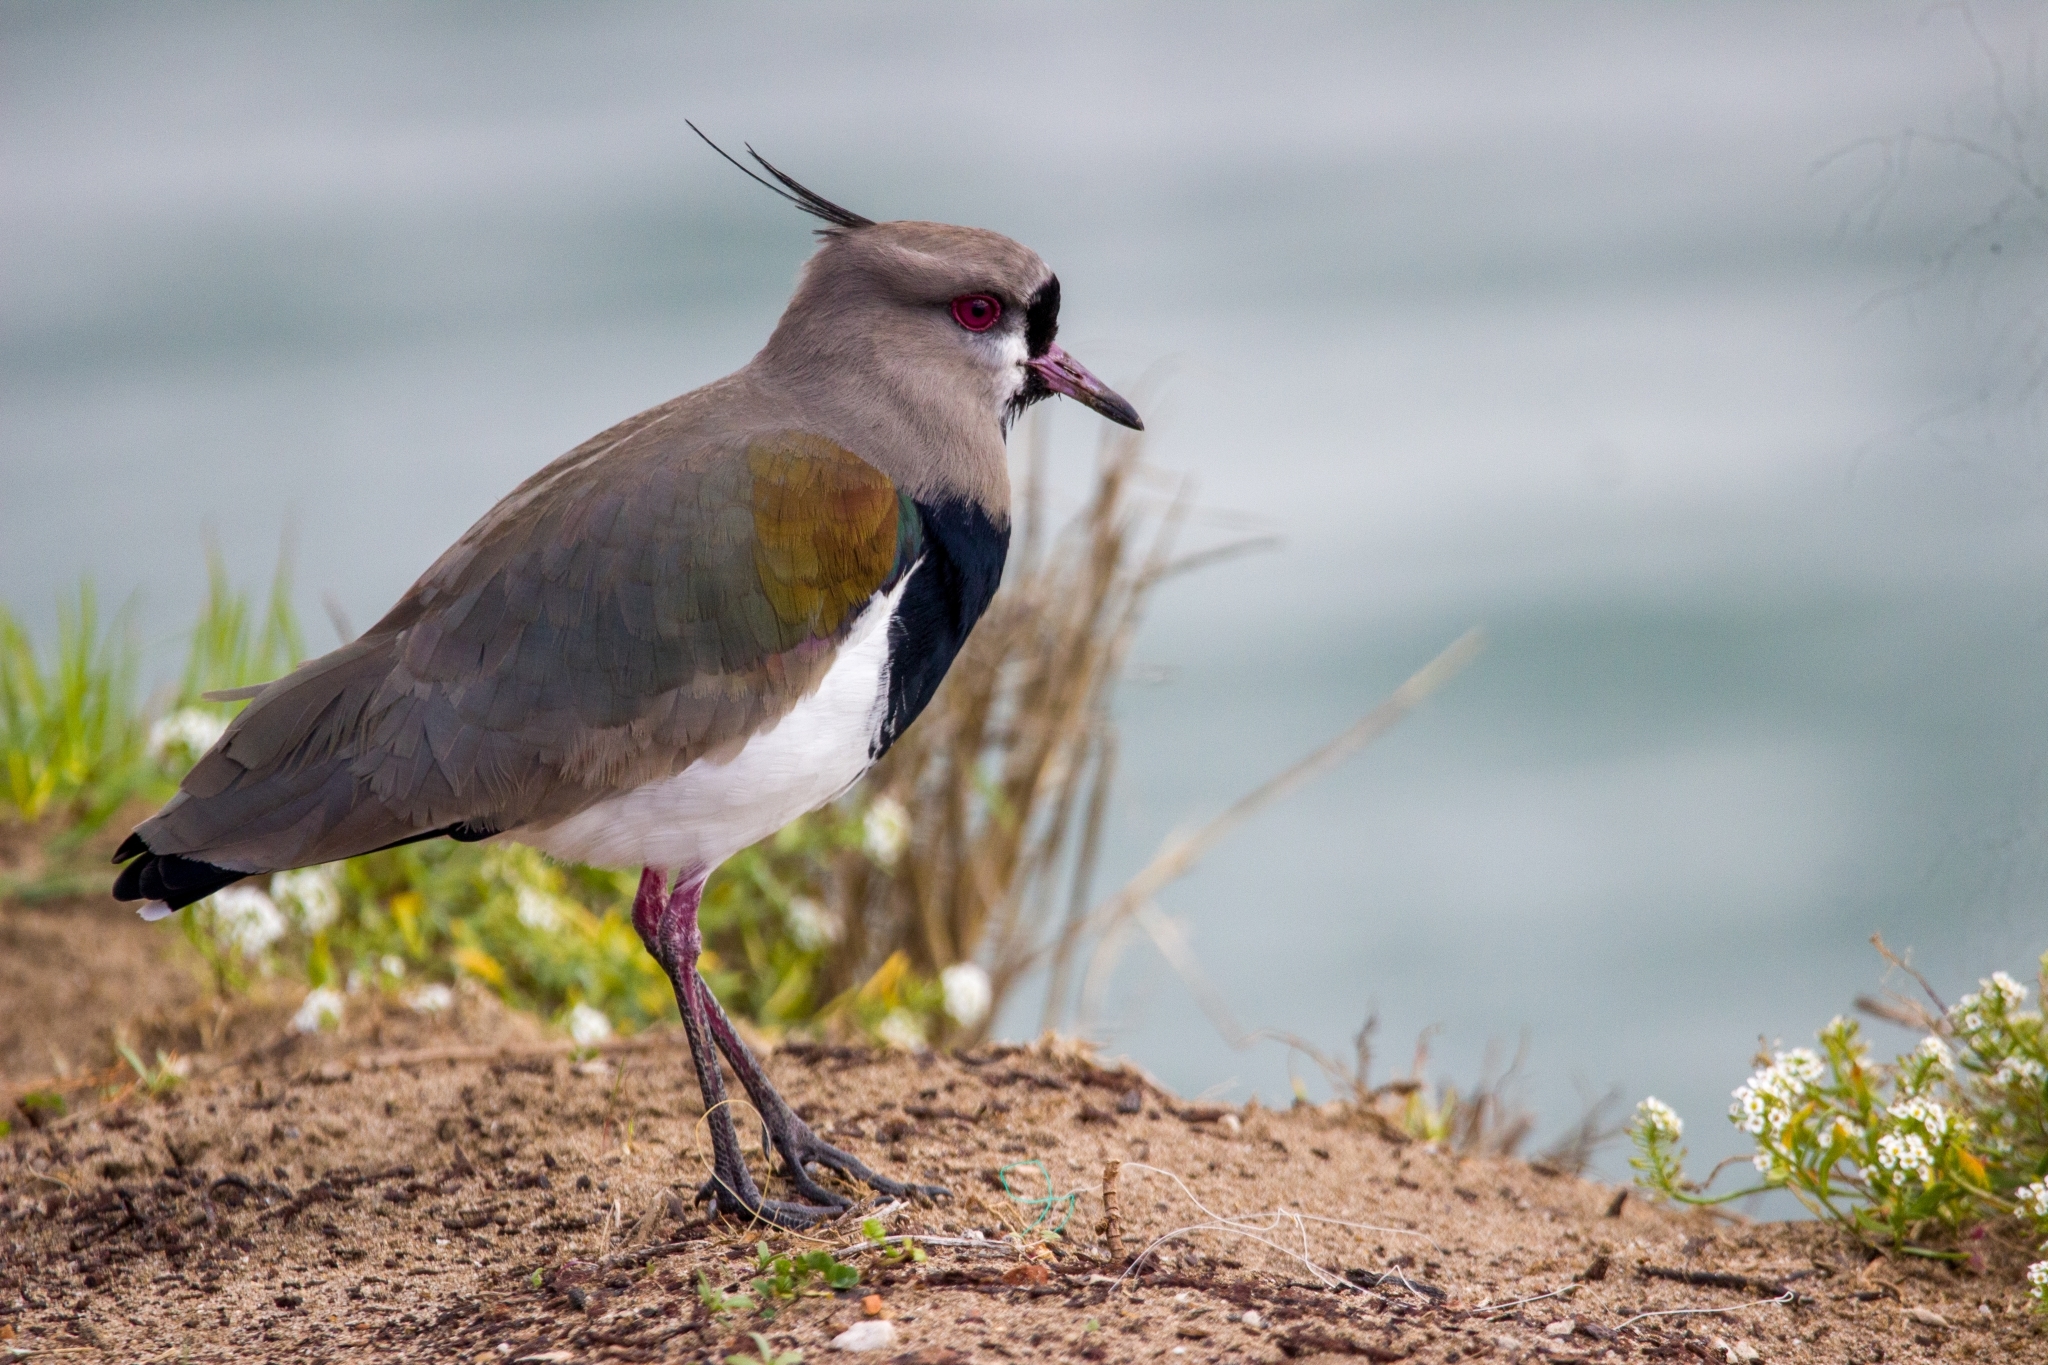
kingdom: Animalia
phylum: Chordata
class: Aves
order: Charadriiformes
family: Charadriidae
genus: Vanellus
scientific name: Vanellus chilensis
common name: Southern lapwing
